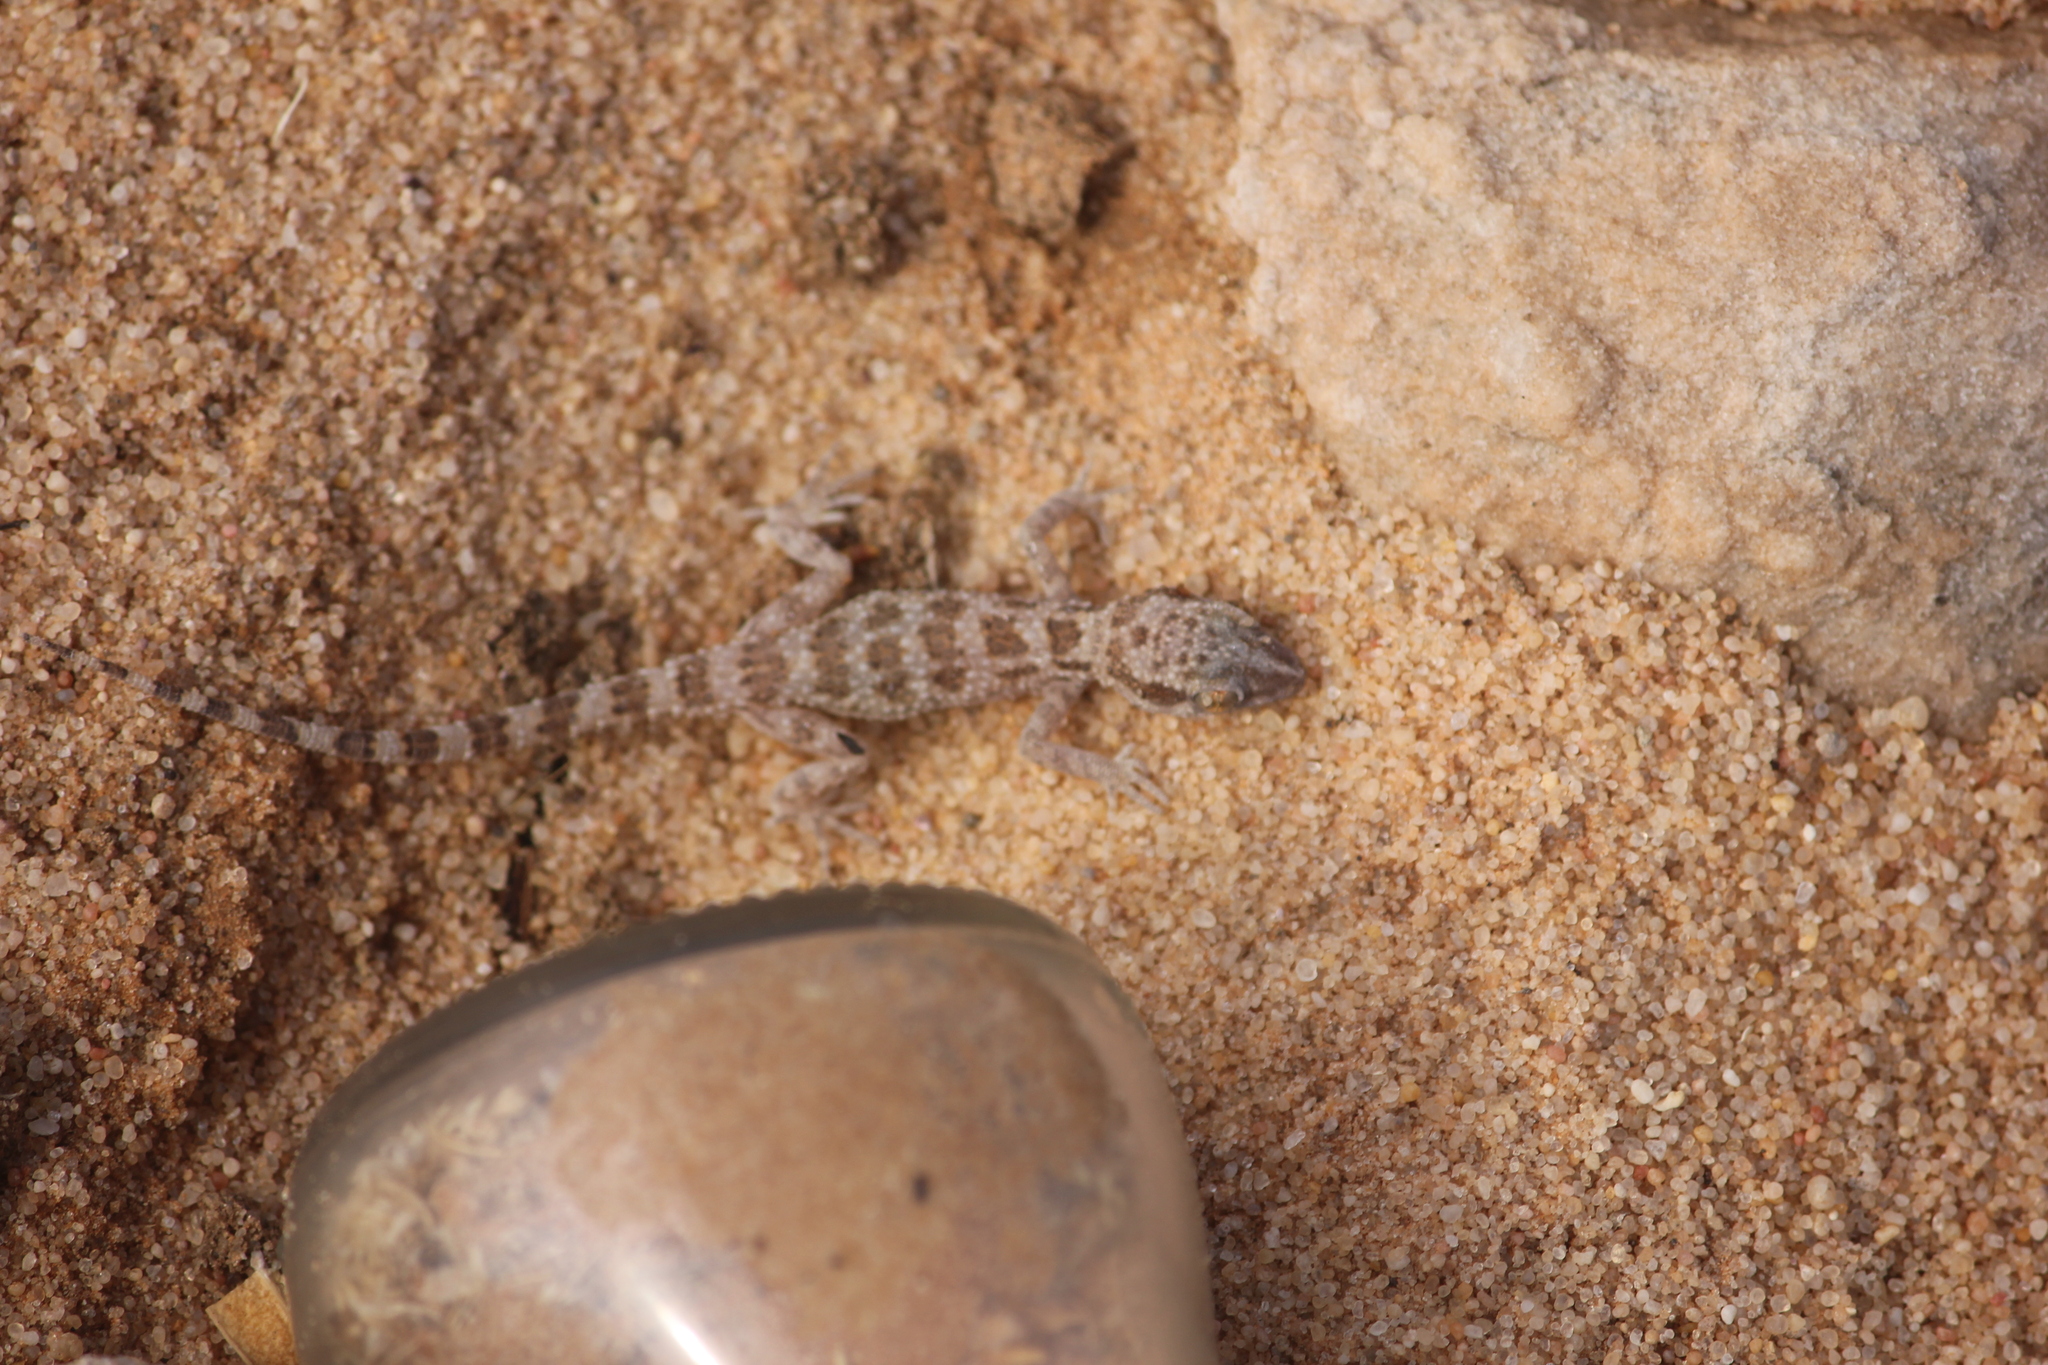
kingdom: Animalia
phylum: Chordata
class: Squamata
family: Gekkonidae
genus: Bunopus
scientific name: Bunopus tuberculatus
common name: Southern tuberculated gecko
